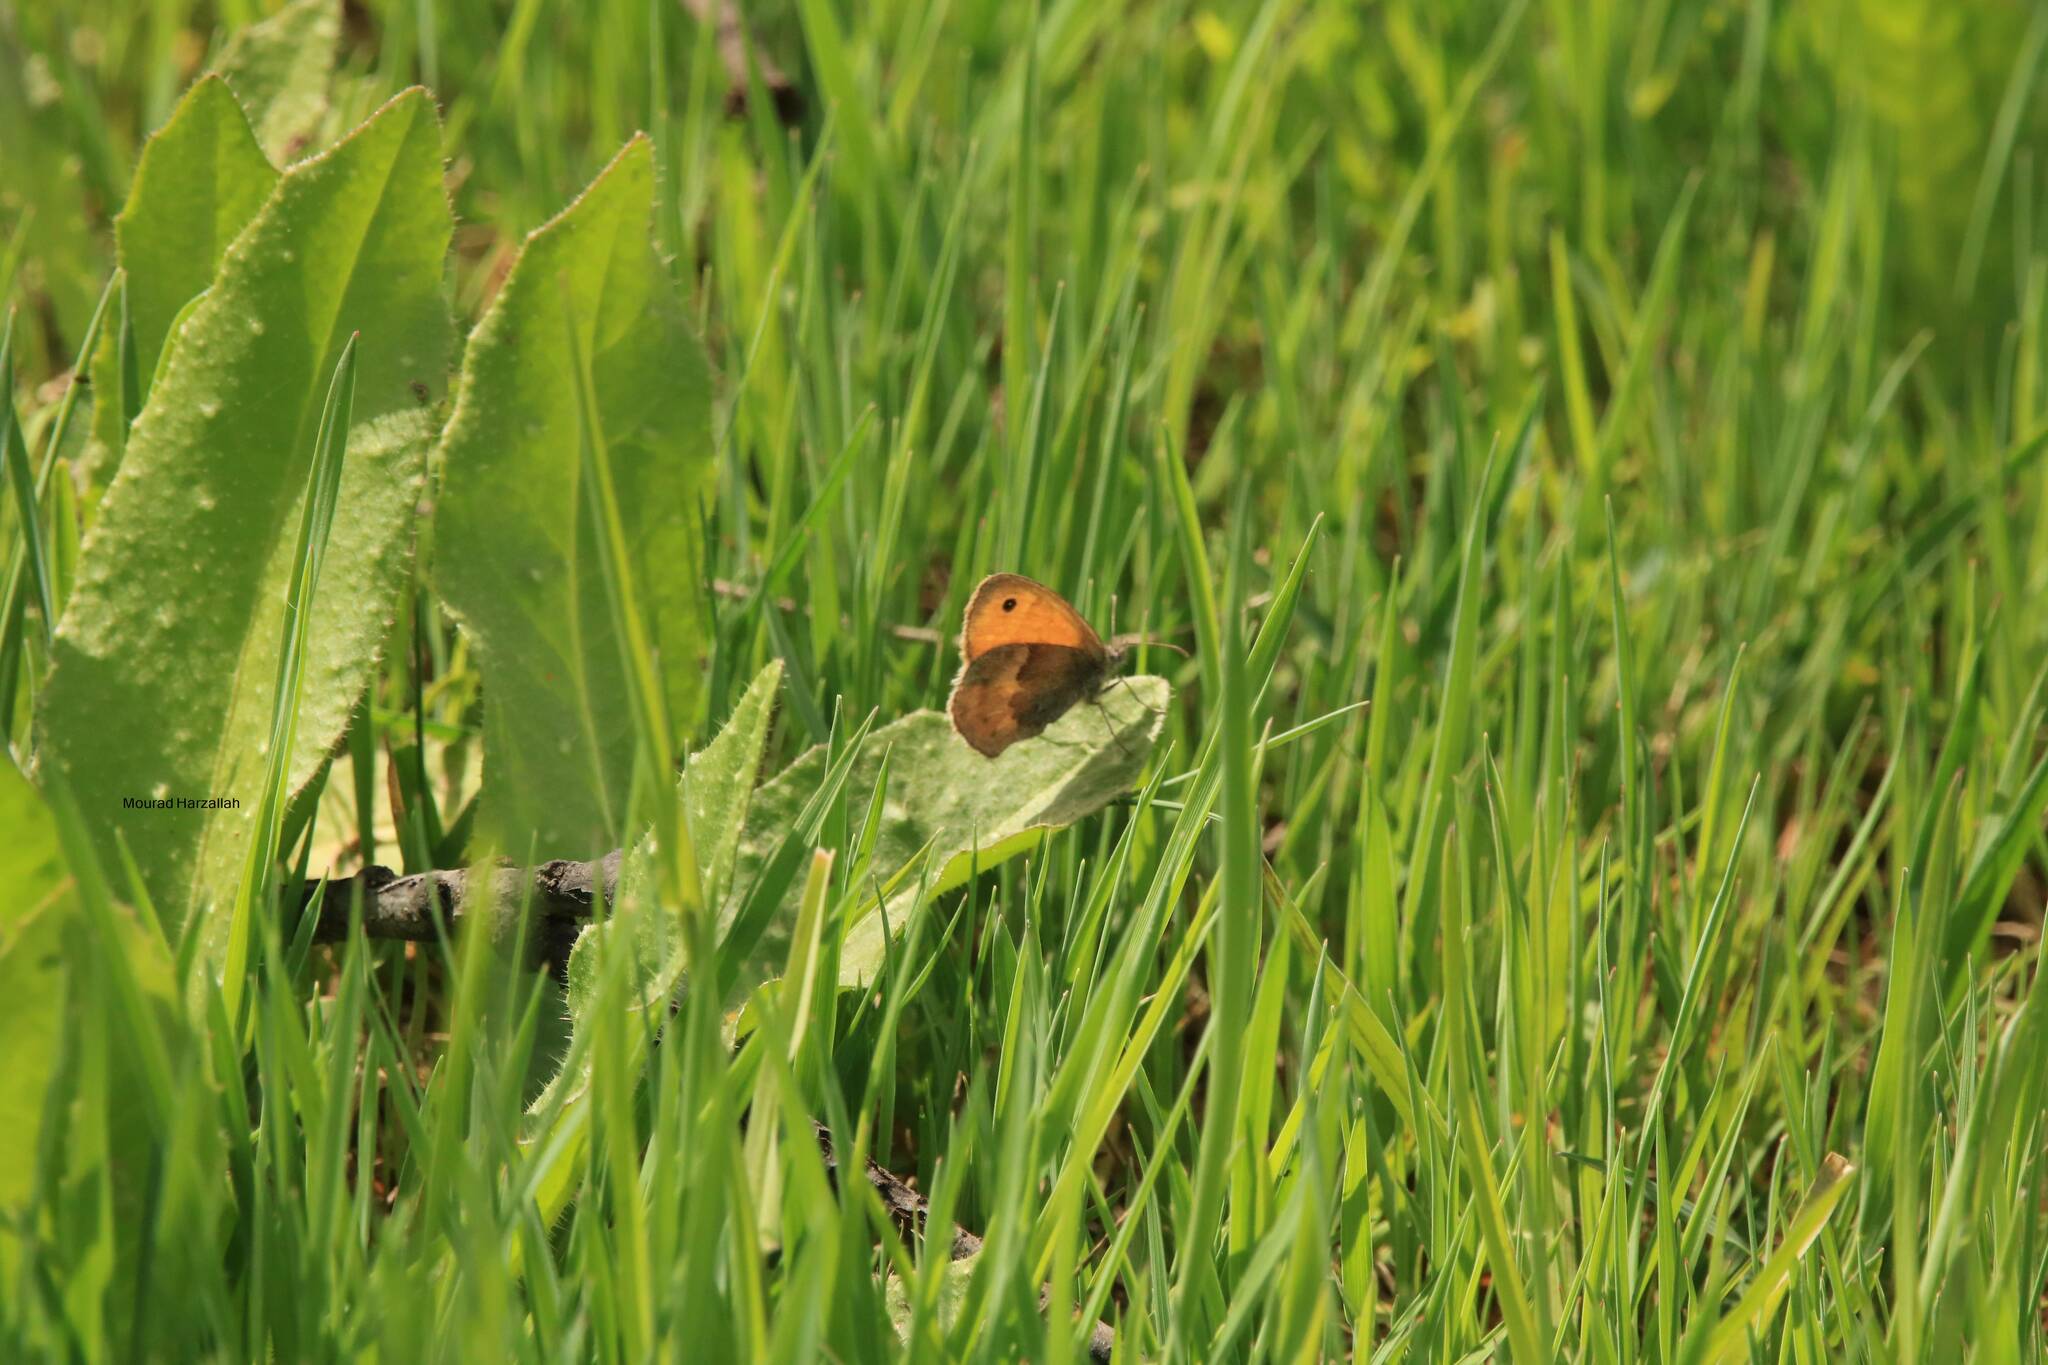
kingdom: Animalia
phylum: Arthropoda
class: Insecta
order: Lepidoptera
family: Nymphalidae
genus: Coenonympha
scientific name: Coenonympha pamphilus
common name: Small heath
